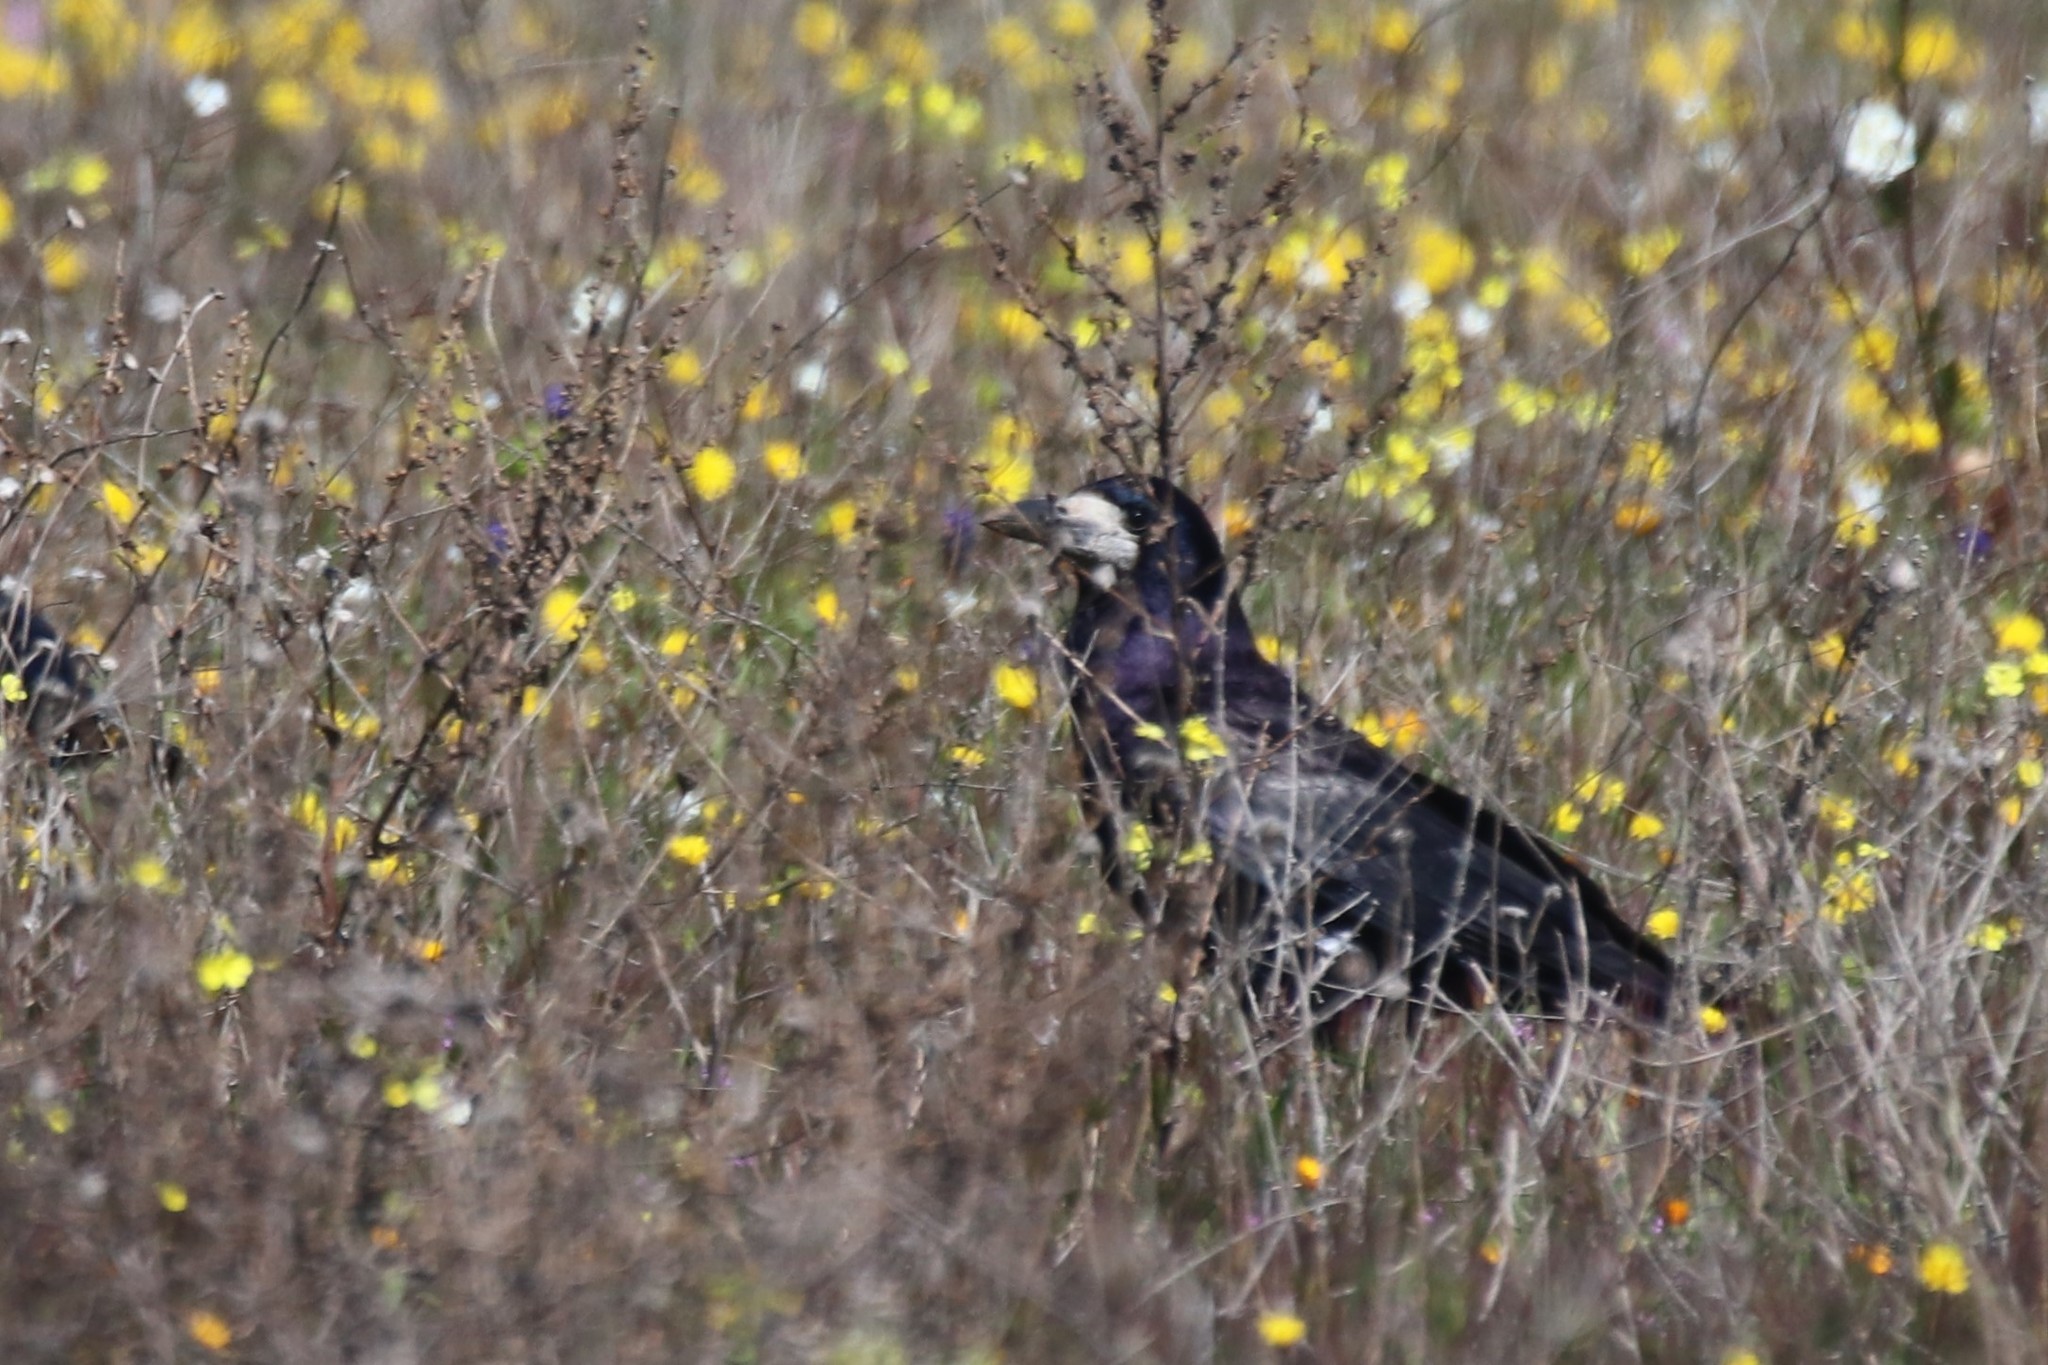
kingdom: Animalia
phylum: Chordata
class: Aves
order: Passeriformes
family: Corvidae
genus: Corvus
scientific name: Corvus frugilegus
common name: Rook
